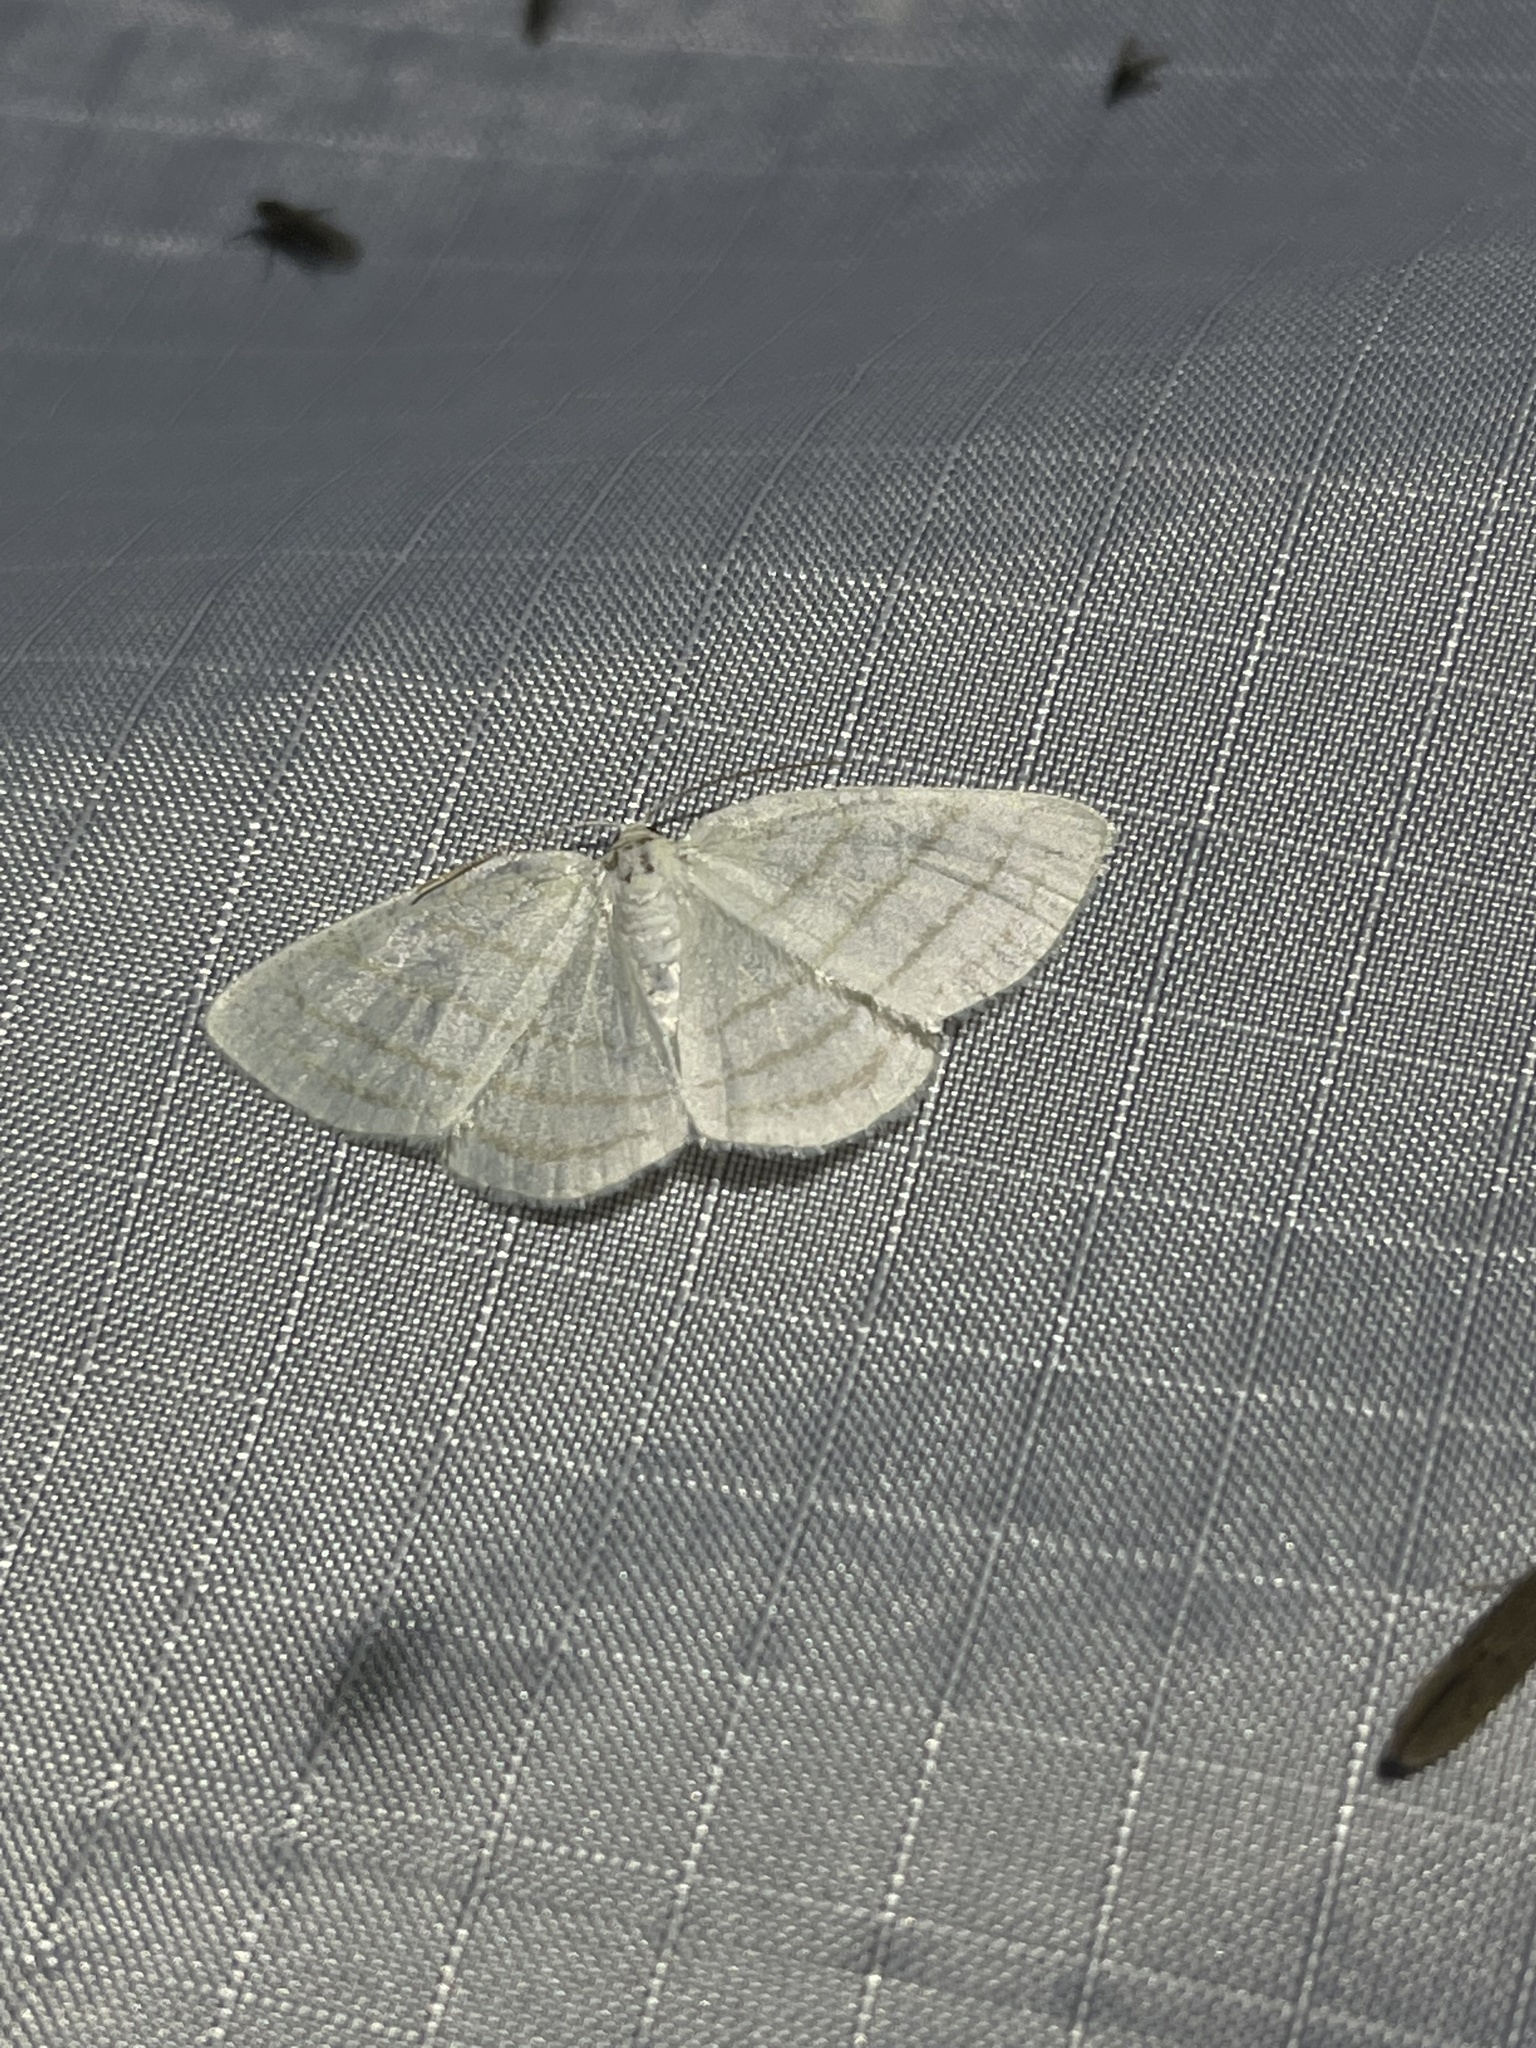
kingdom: Animalia
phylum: Arthropoda
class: Insecta
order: Lepidoptera
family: Geometridae
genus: Cabera
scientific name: Cabera quadrifasciaria
